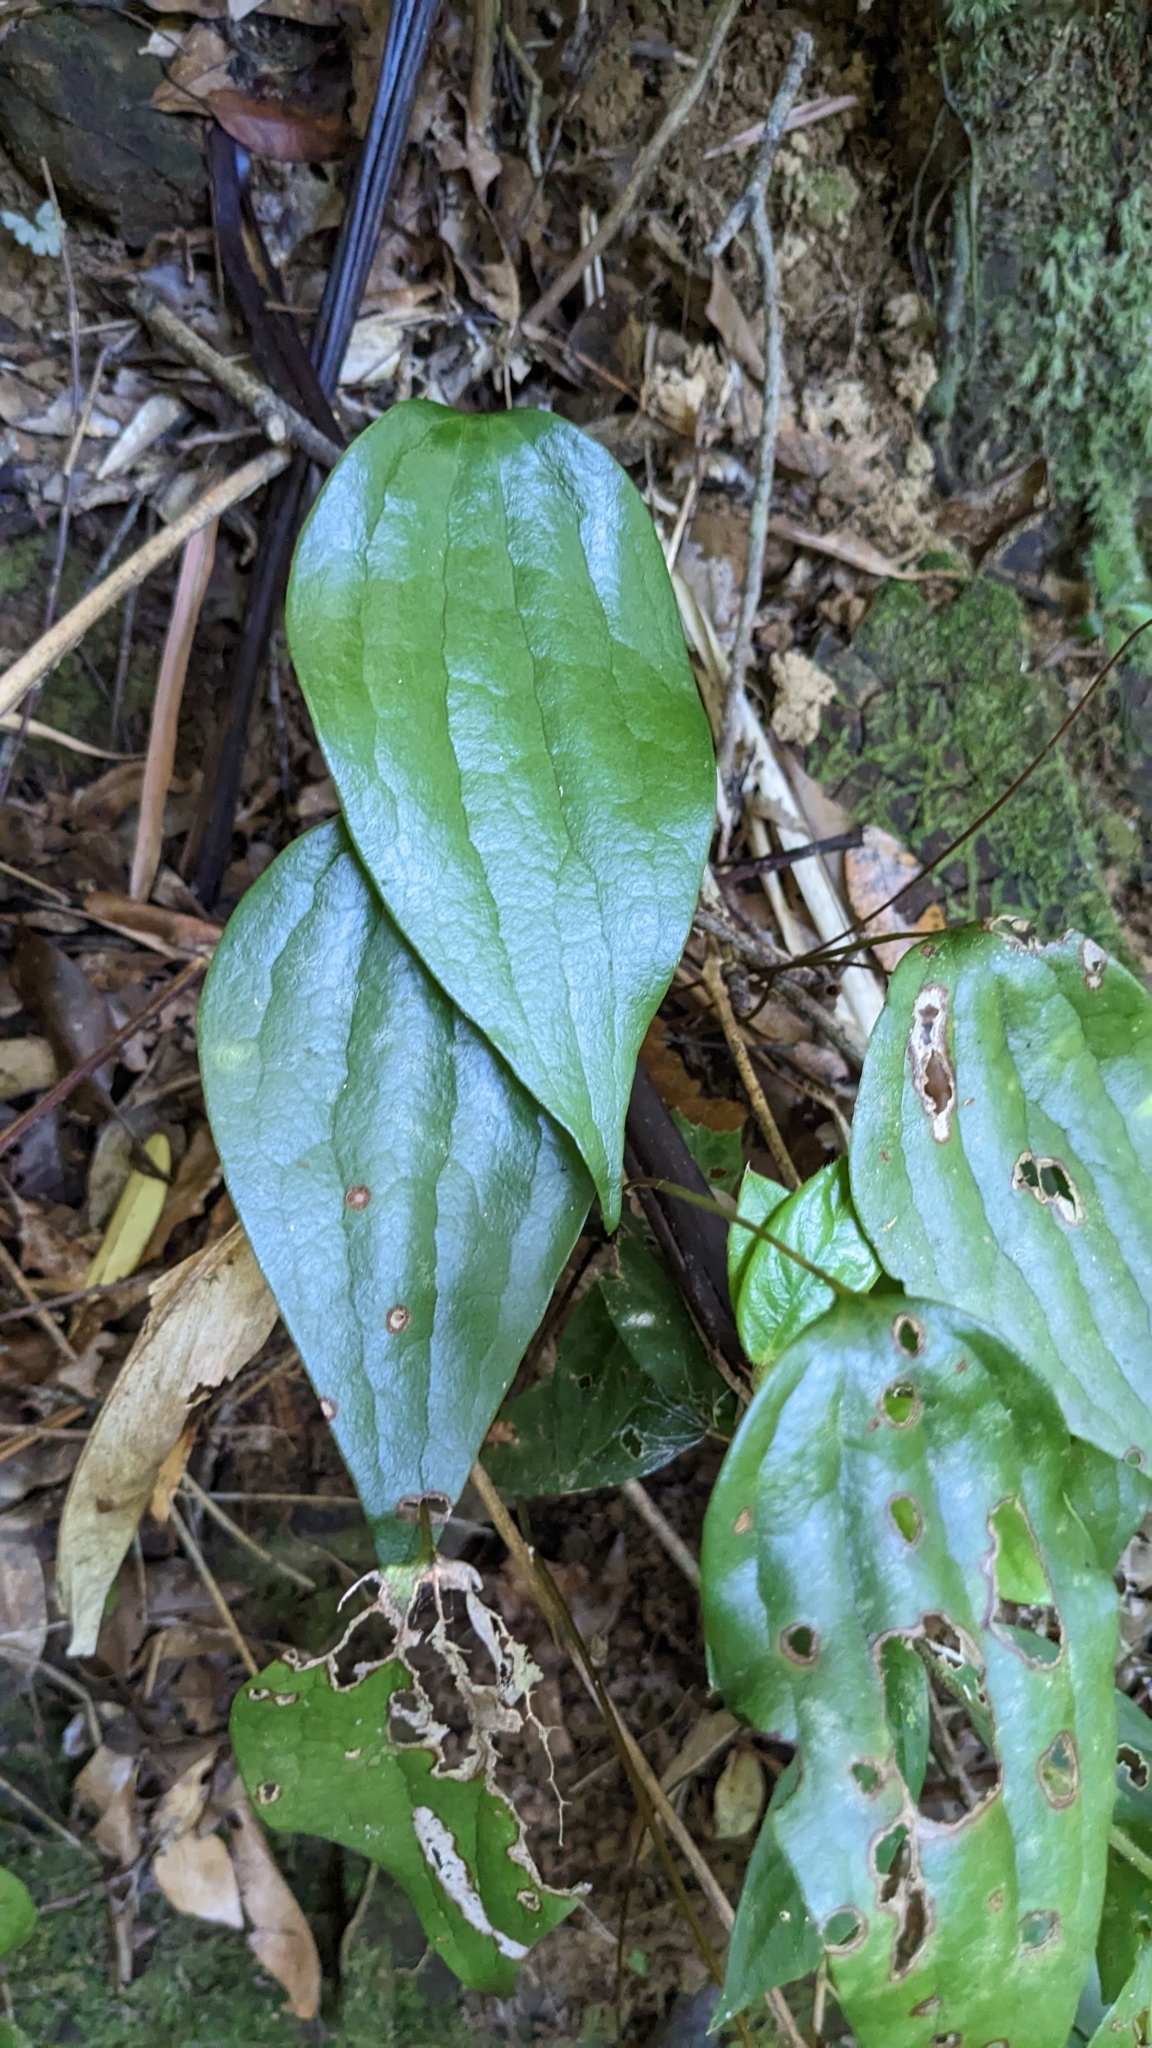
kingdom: Plantae
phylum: Tracheophyta
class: Polypodiopsida
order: Gleicheniales
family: Dipteridaceae
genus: Cheiropleuria
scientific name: Cheiropleuria integrifolia
